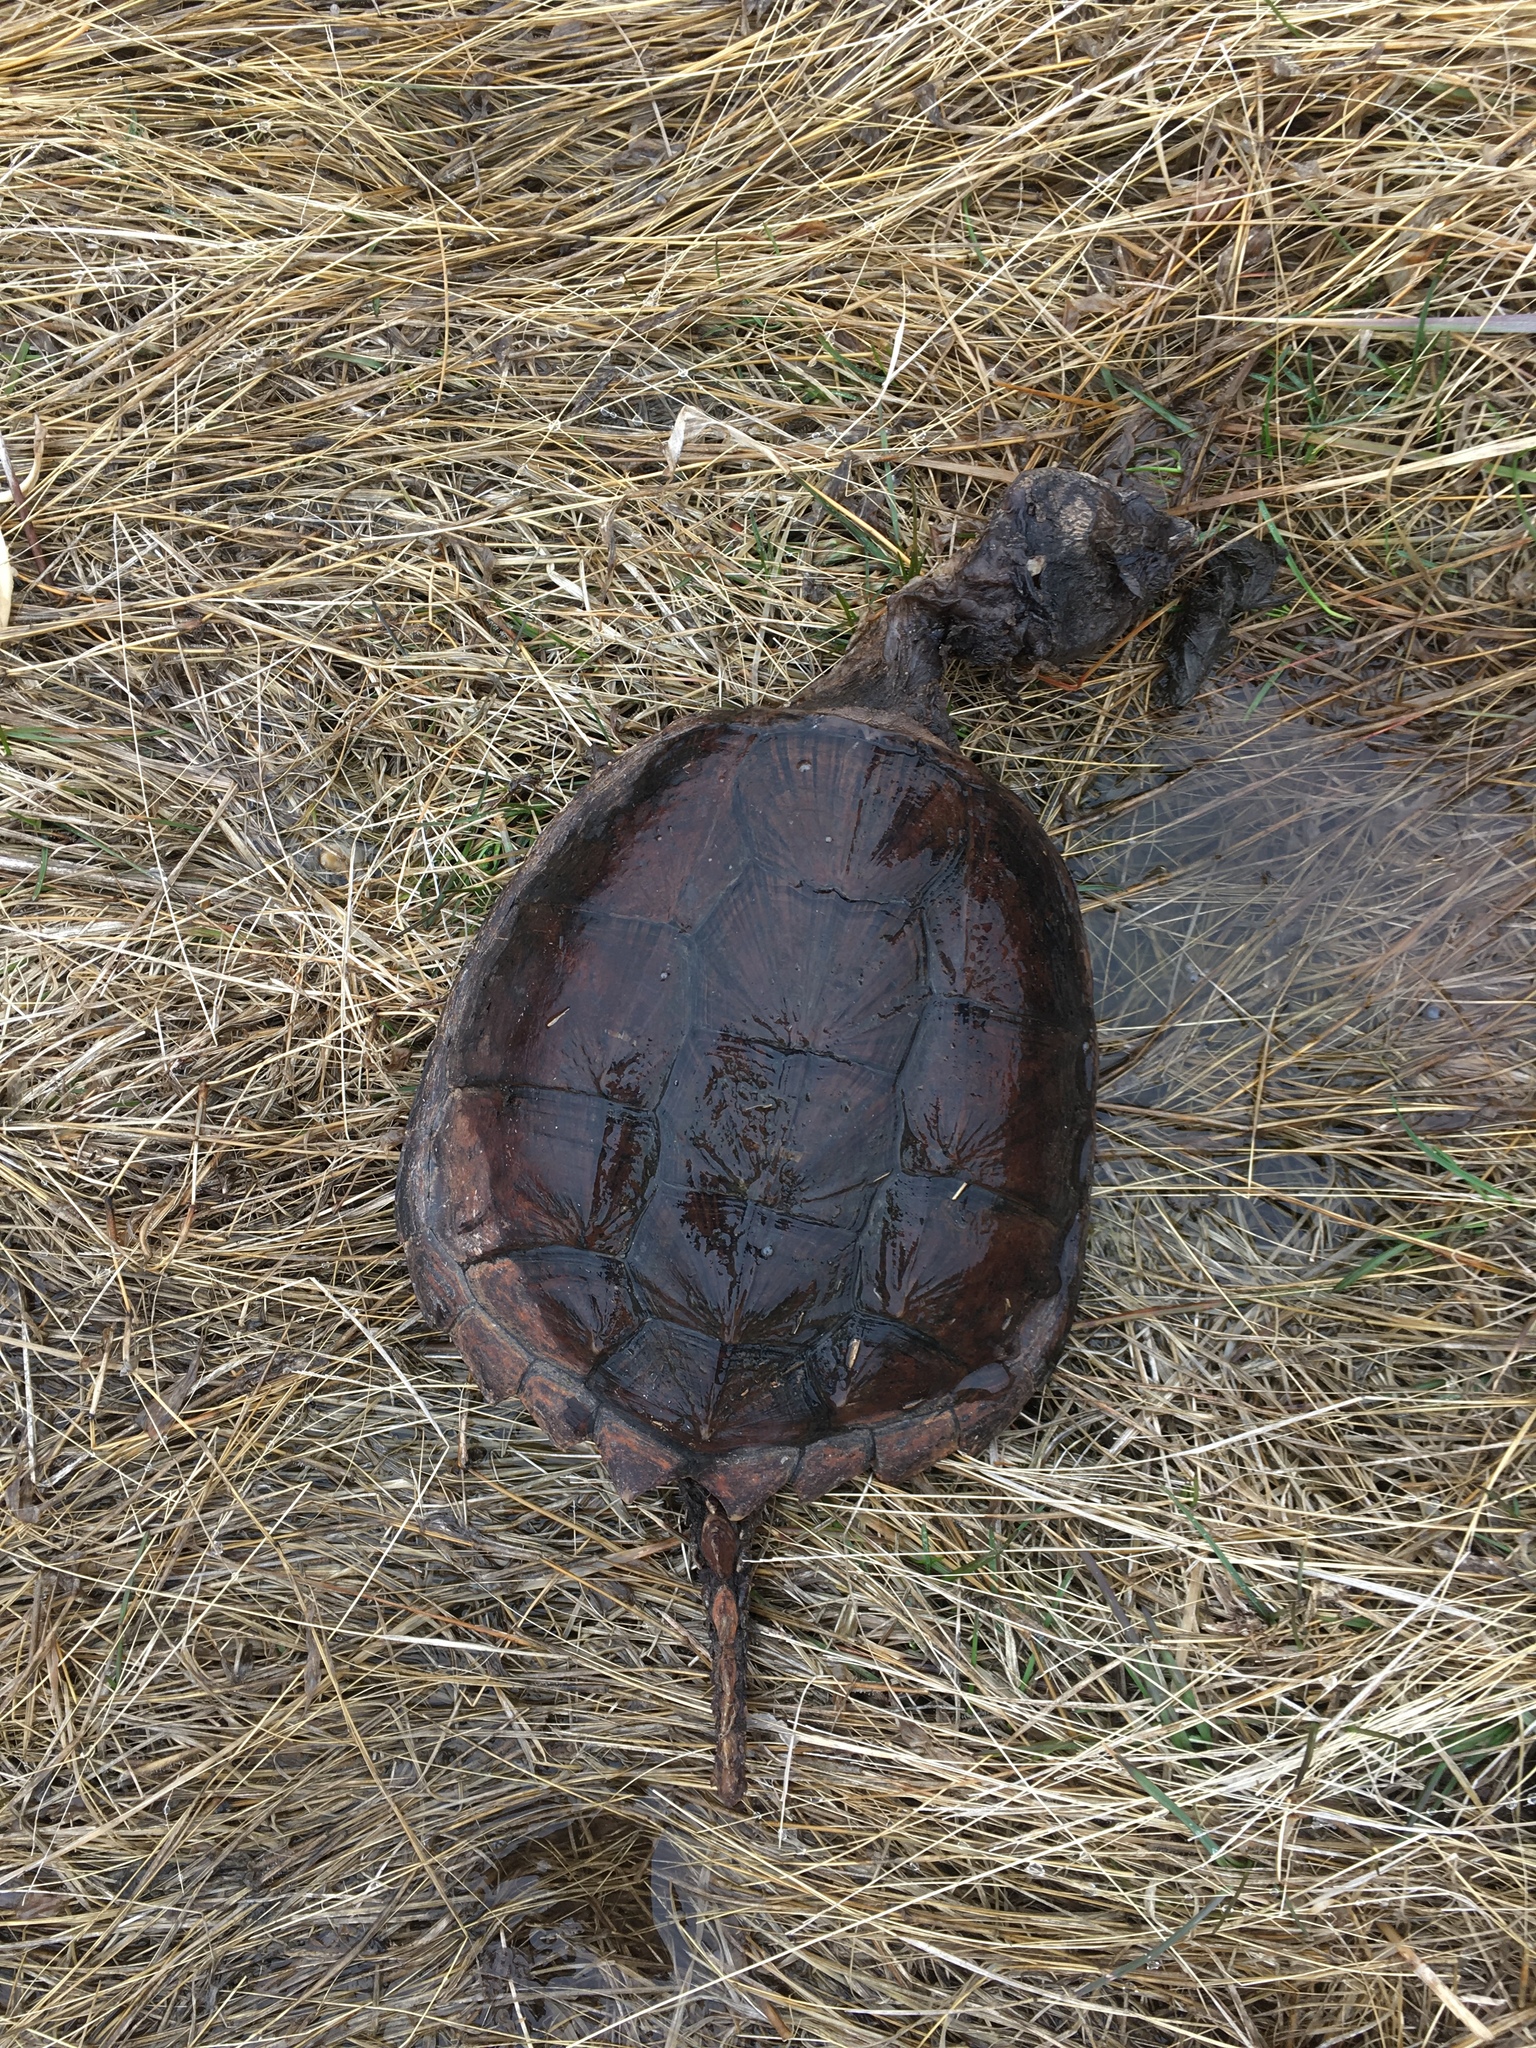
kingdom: Animalia
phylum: Chordata
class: Testudines
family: Chelydridae
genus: Chelydra
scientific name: Chelydra serpentina
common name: Common snapping turtle
